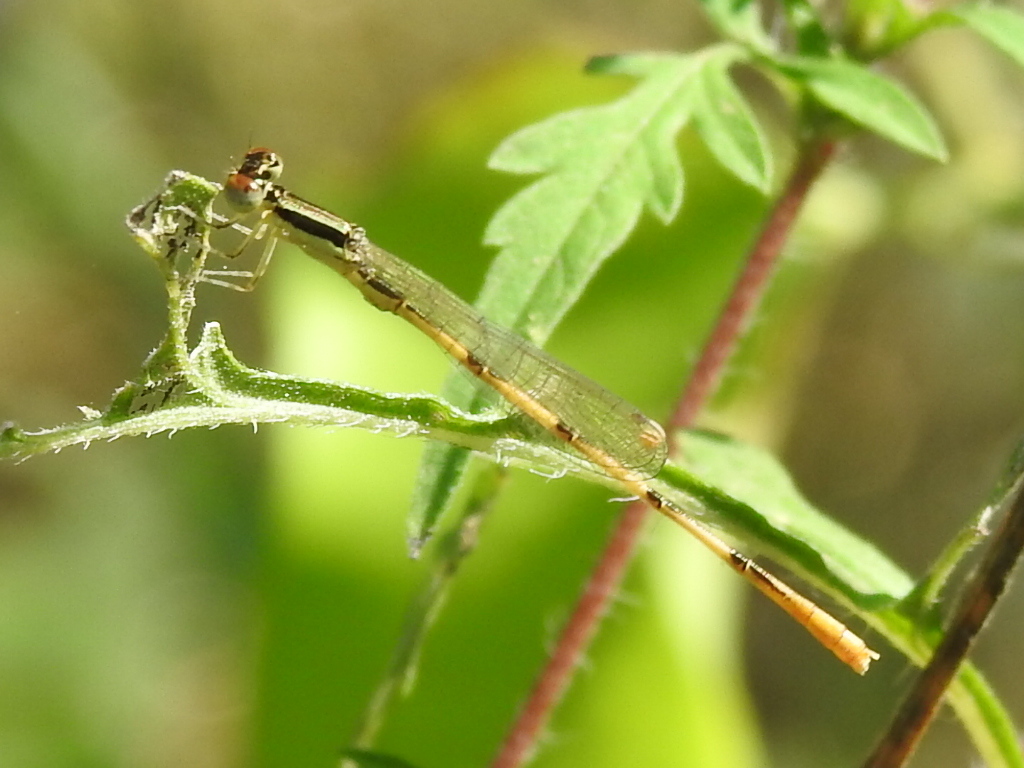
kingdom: Animalia
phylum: Arthropoda
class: Insecta
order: Odonata
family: Coenagrionidae
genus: Ischnura
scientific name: Ischnura hastata
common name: Citrine forktail
